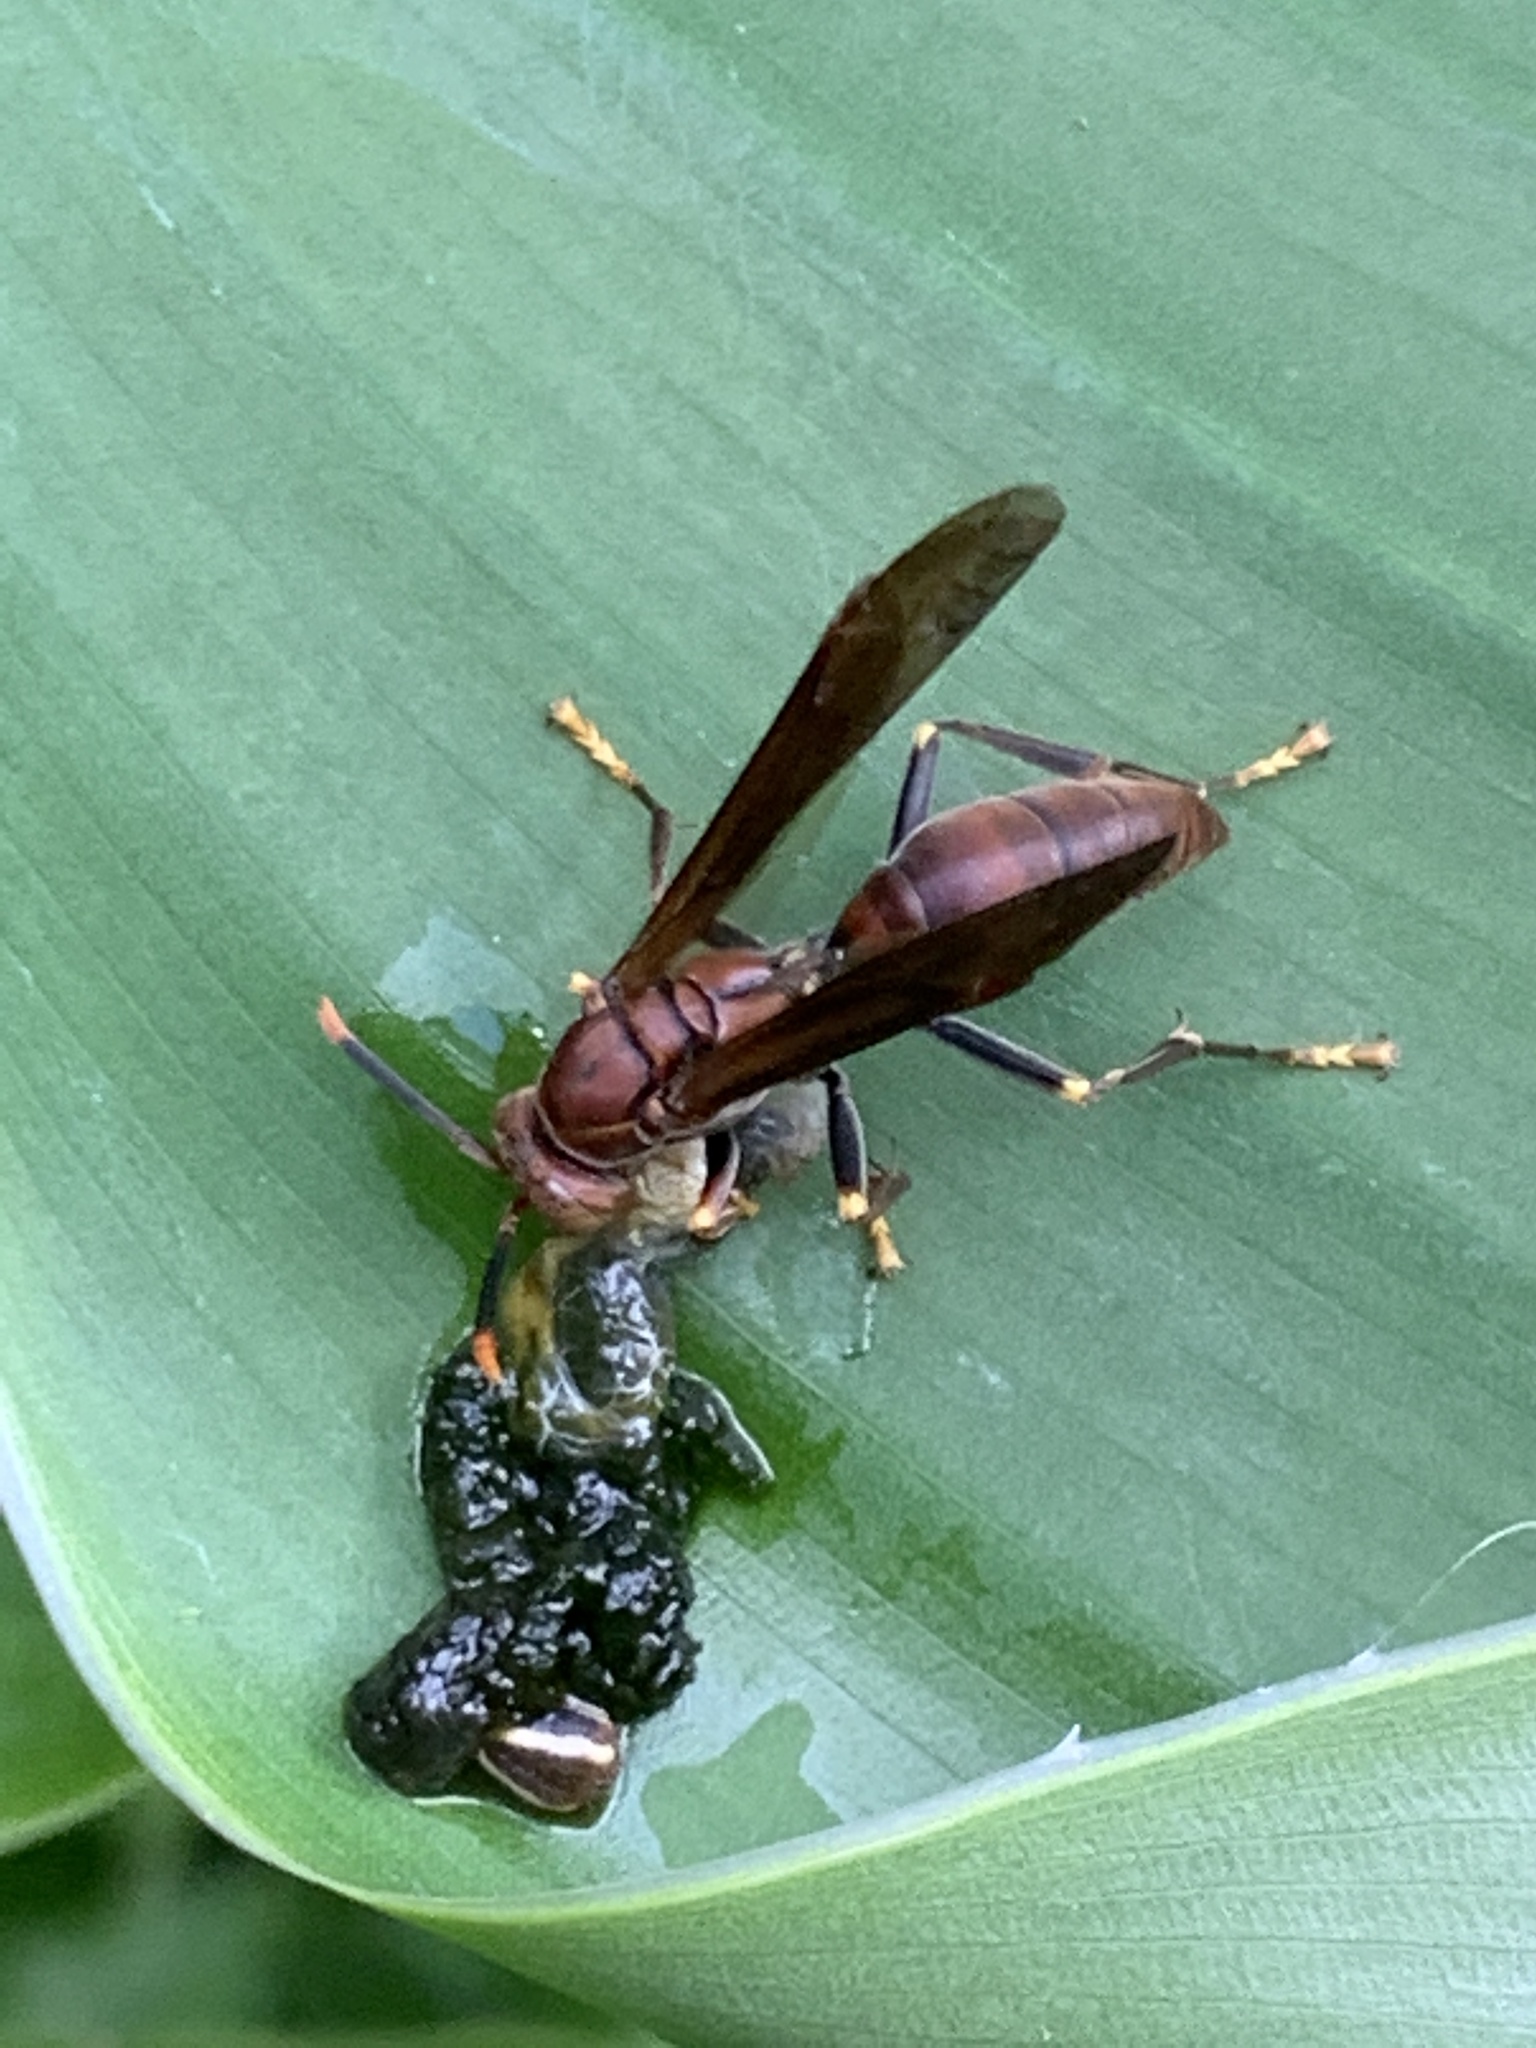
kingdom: Animalia
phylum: Arthropoda
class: Insecta
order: Hymenoptera
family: Pompilidae
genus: Aphanilopterus
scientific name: Aphanilopterus
